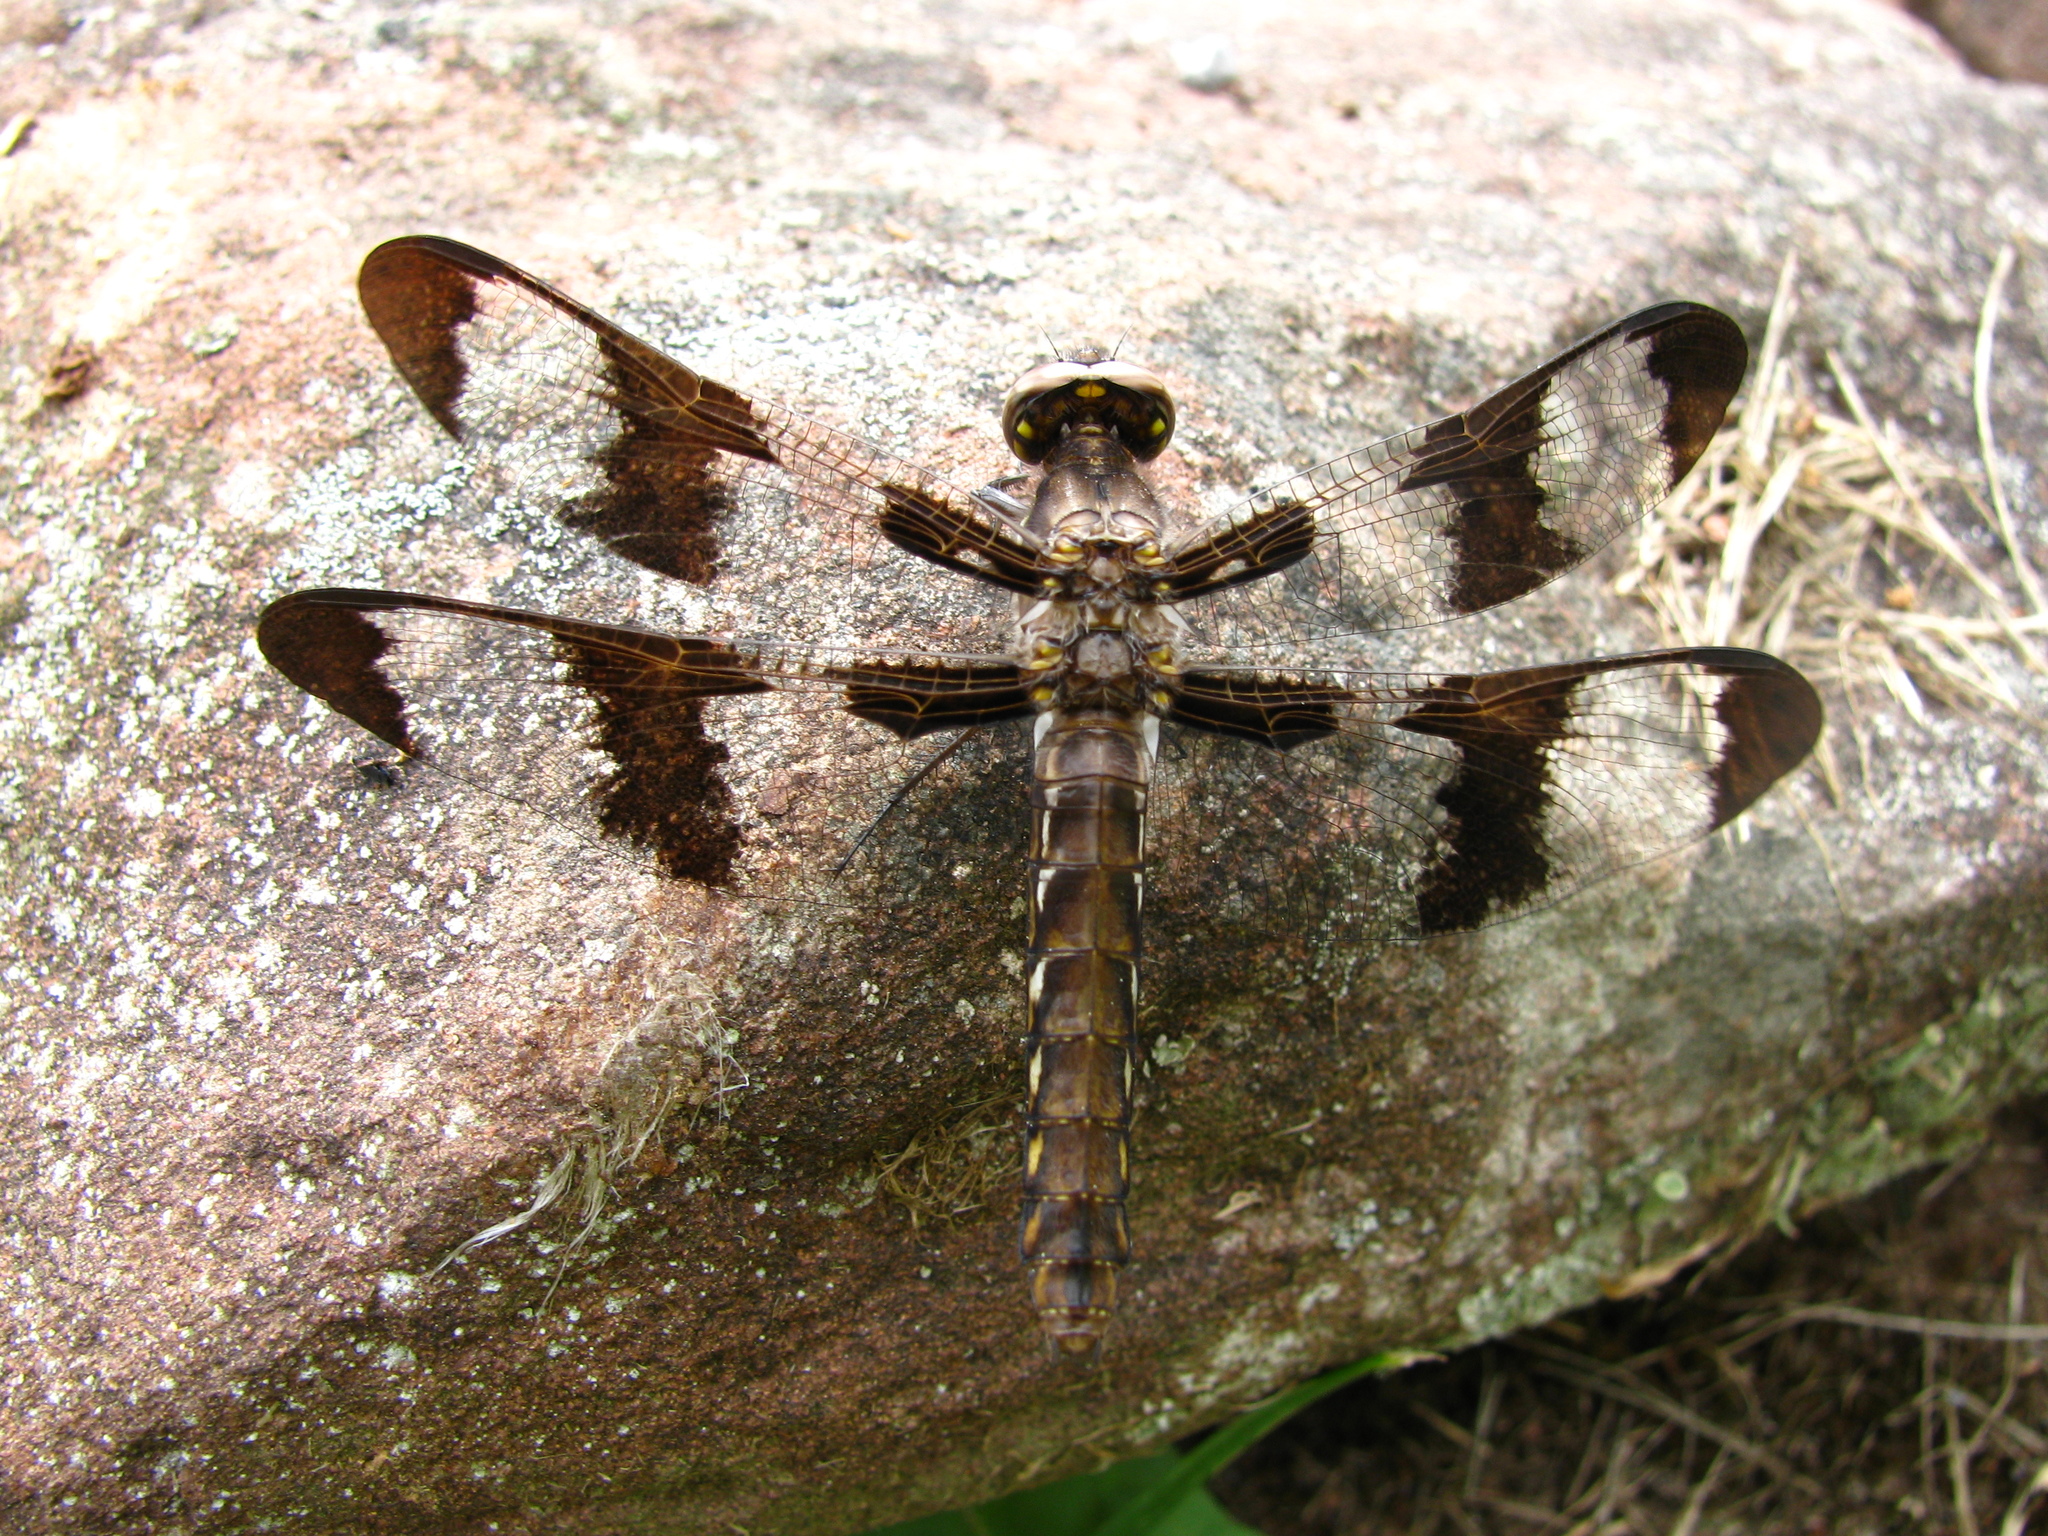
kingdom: Animalia
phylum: Arthropoda
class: Insecta
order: Odonata
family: Libellulidae
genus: Plathemis
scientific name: Plathemis lydia
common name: Common whitetail
